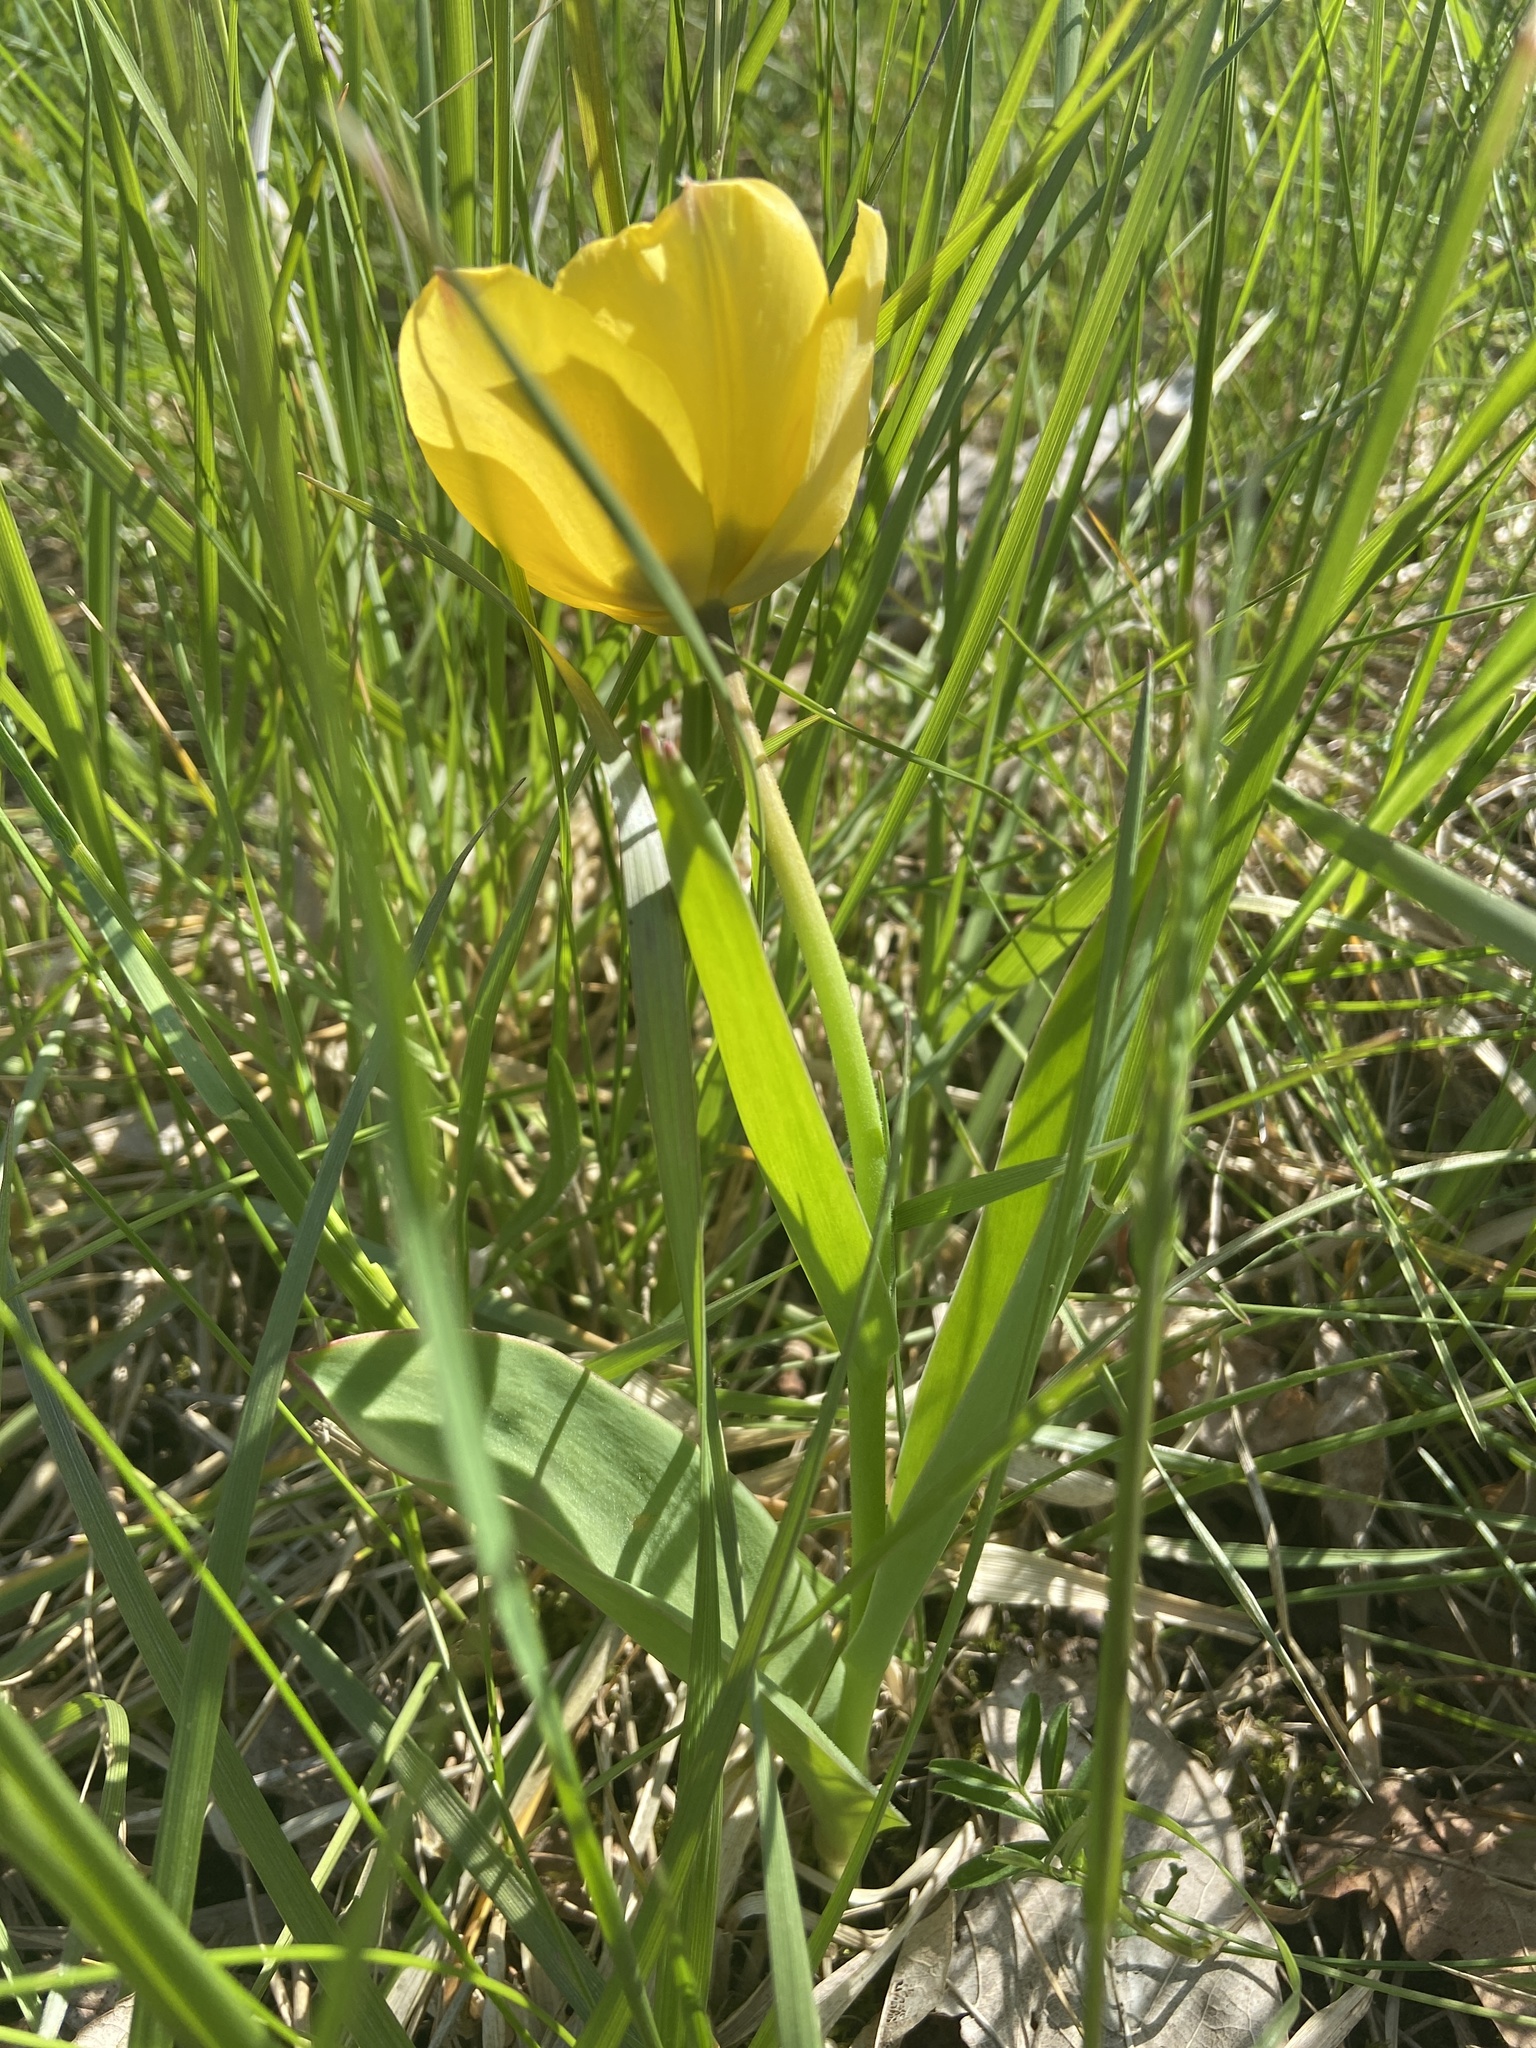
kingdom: Plantae
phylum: Tracheophyta
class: Liliopsida
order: Liliales
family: Liliaceae
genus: Tulipa
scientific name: Tulipa gesneriana
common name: Garden tulip
